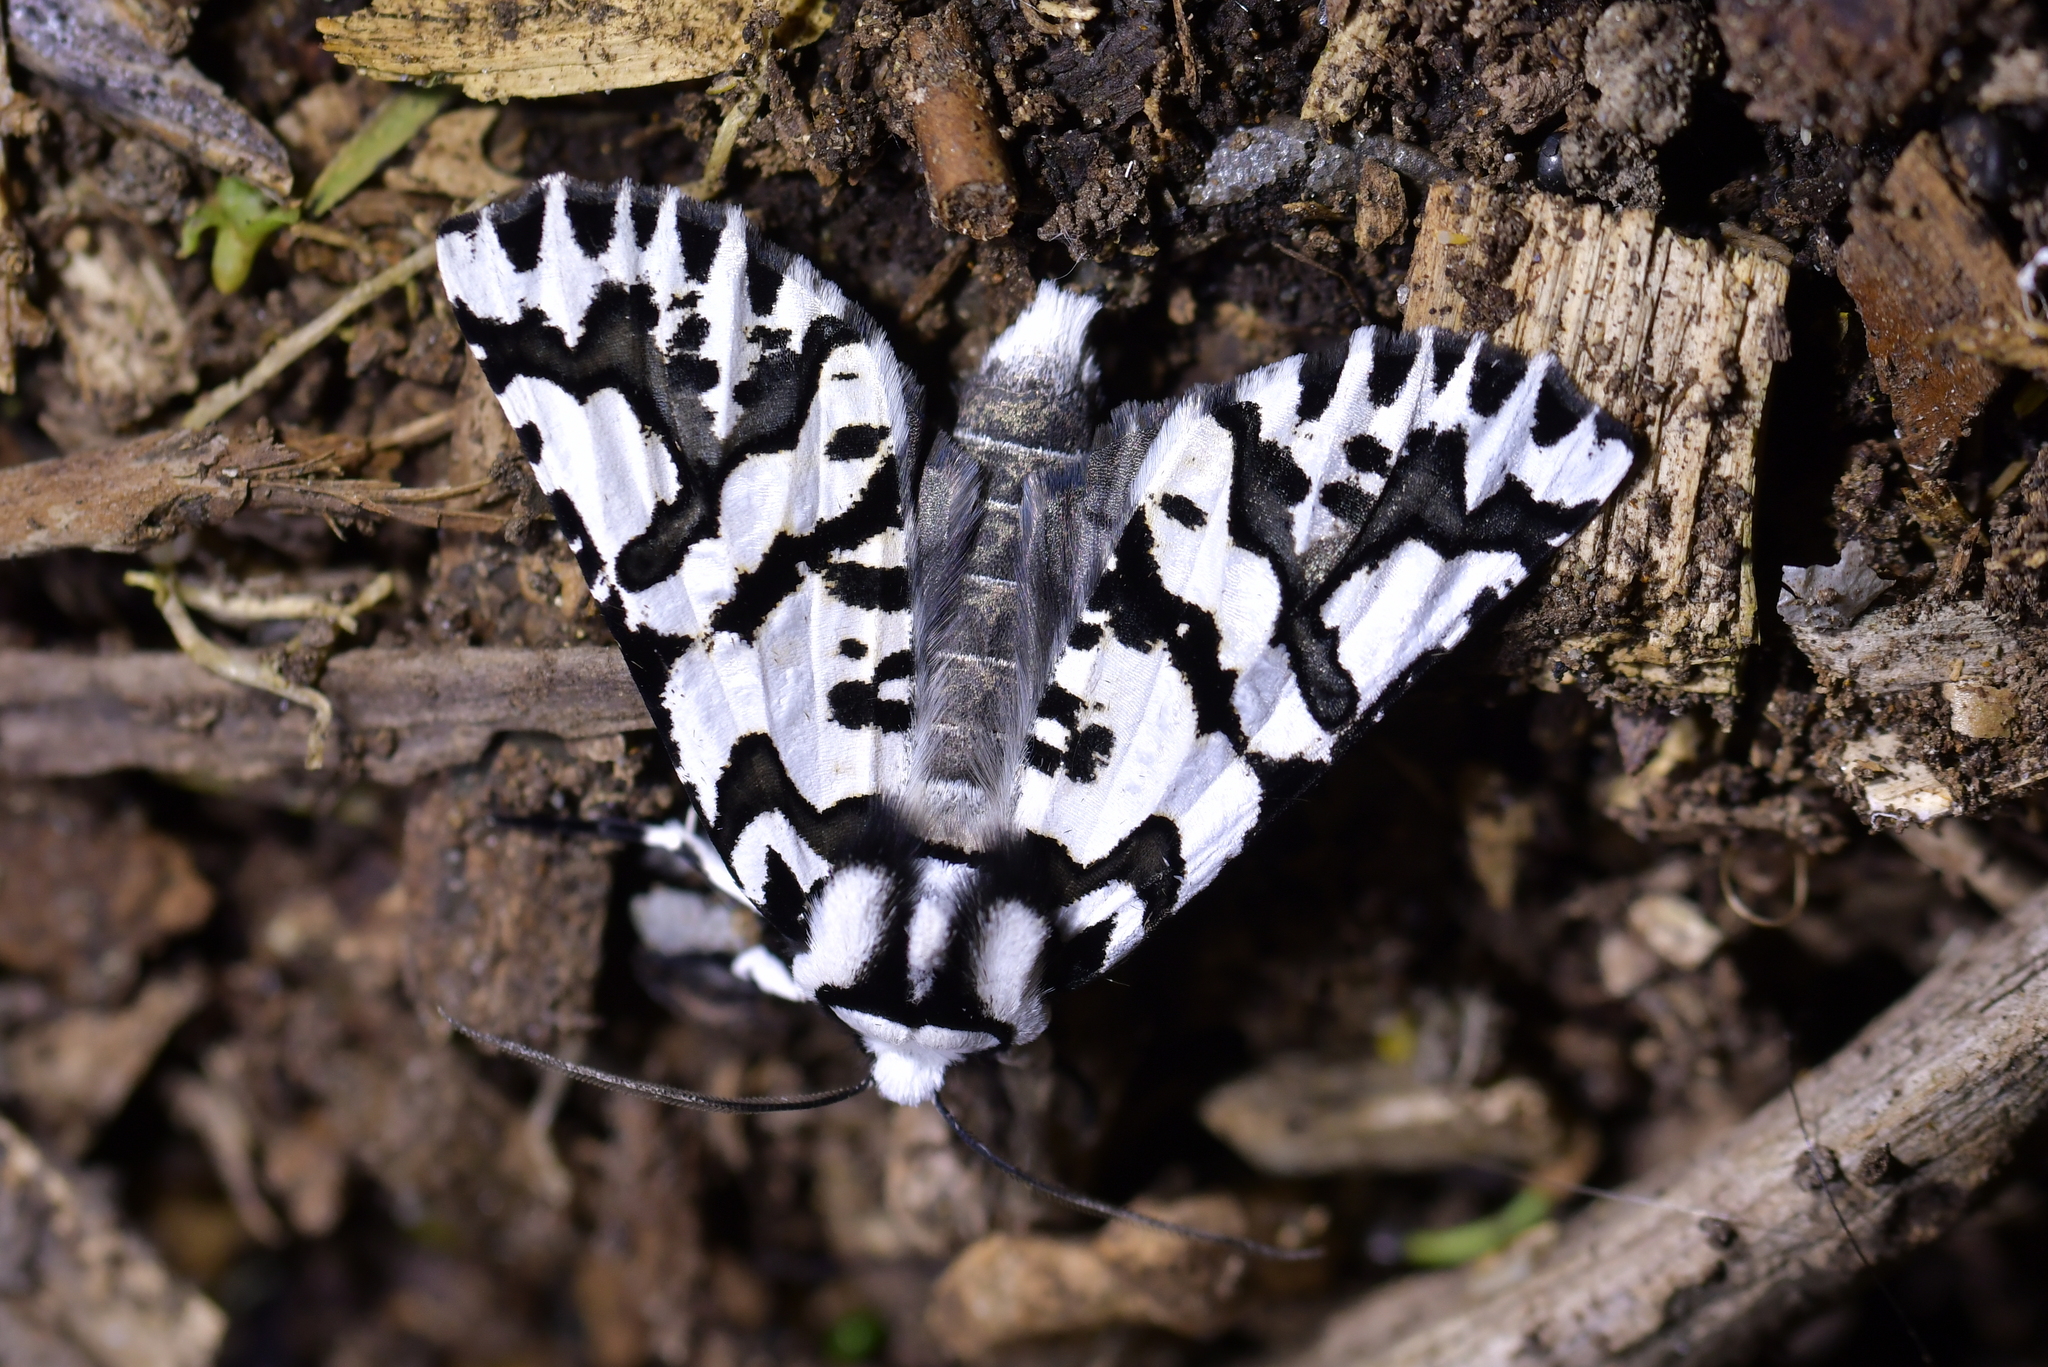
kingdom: Animalia
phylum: Arthropoda
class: Insecta
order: Lepidoptera
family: Geometridae
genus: Declana
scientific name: Declana
